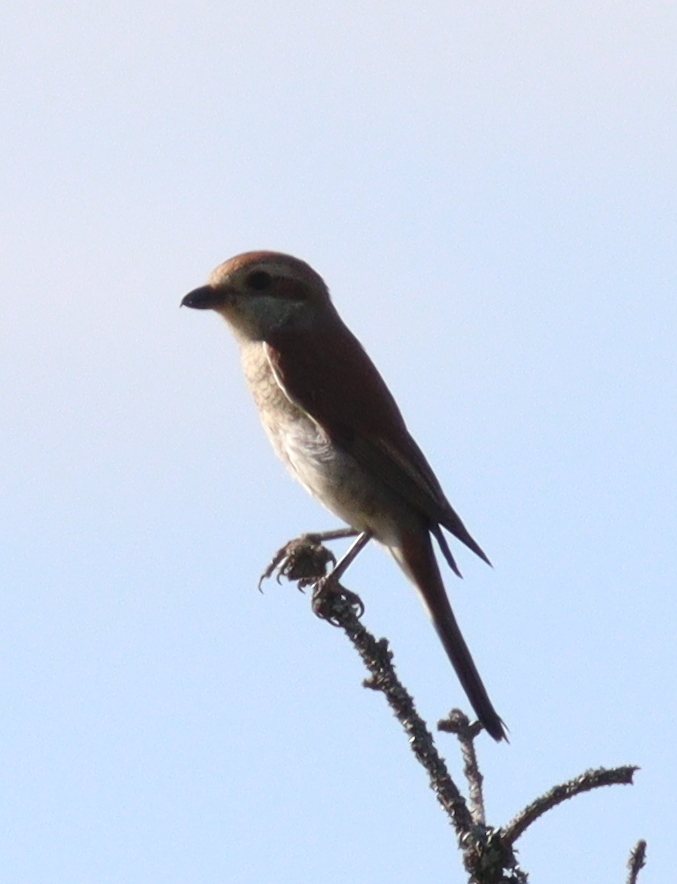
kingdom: Animalia
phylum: Chordata
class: Aves
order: Passeriformes
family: Laniidae
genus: Lanius
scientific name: Lanius collurio
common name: Red-backed shrike
